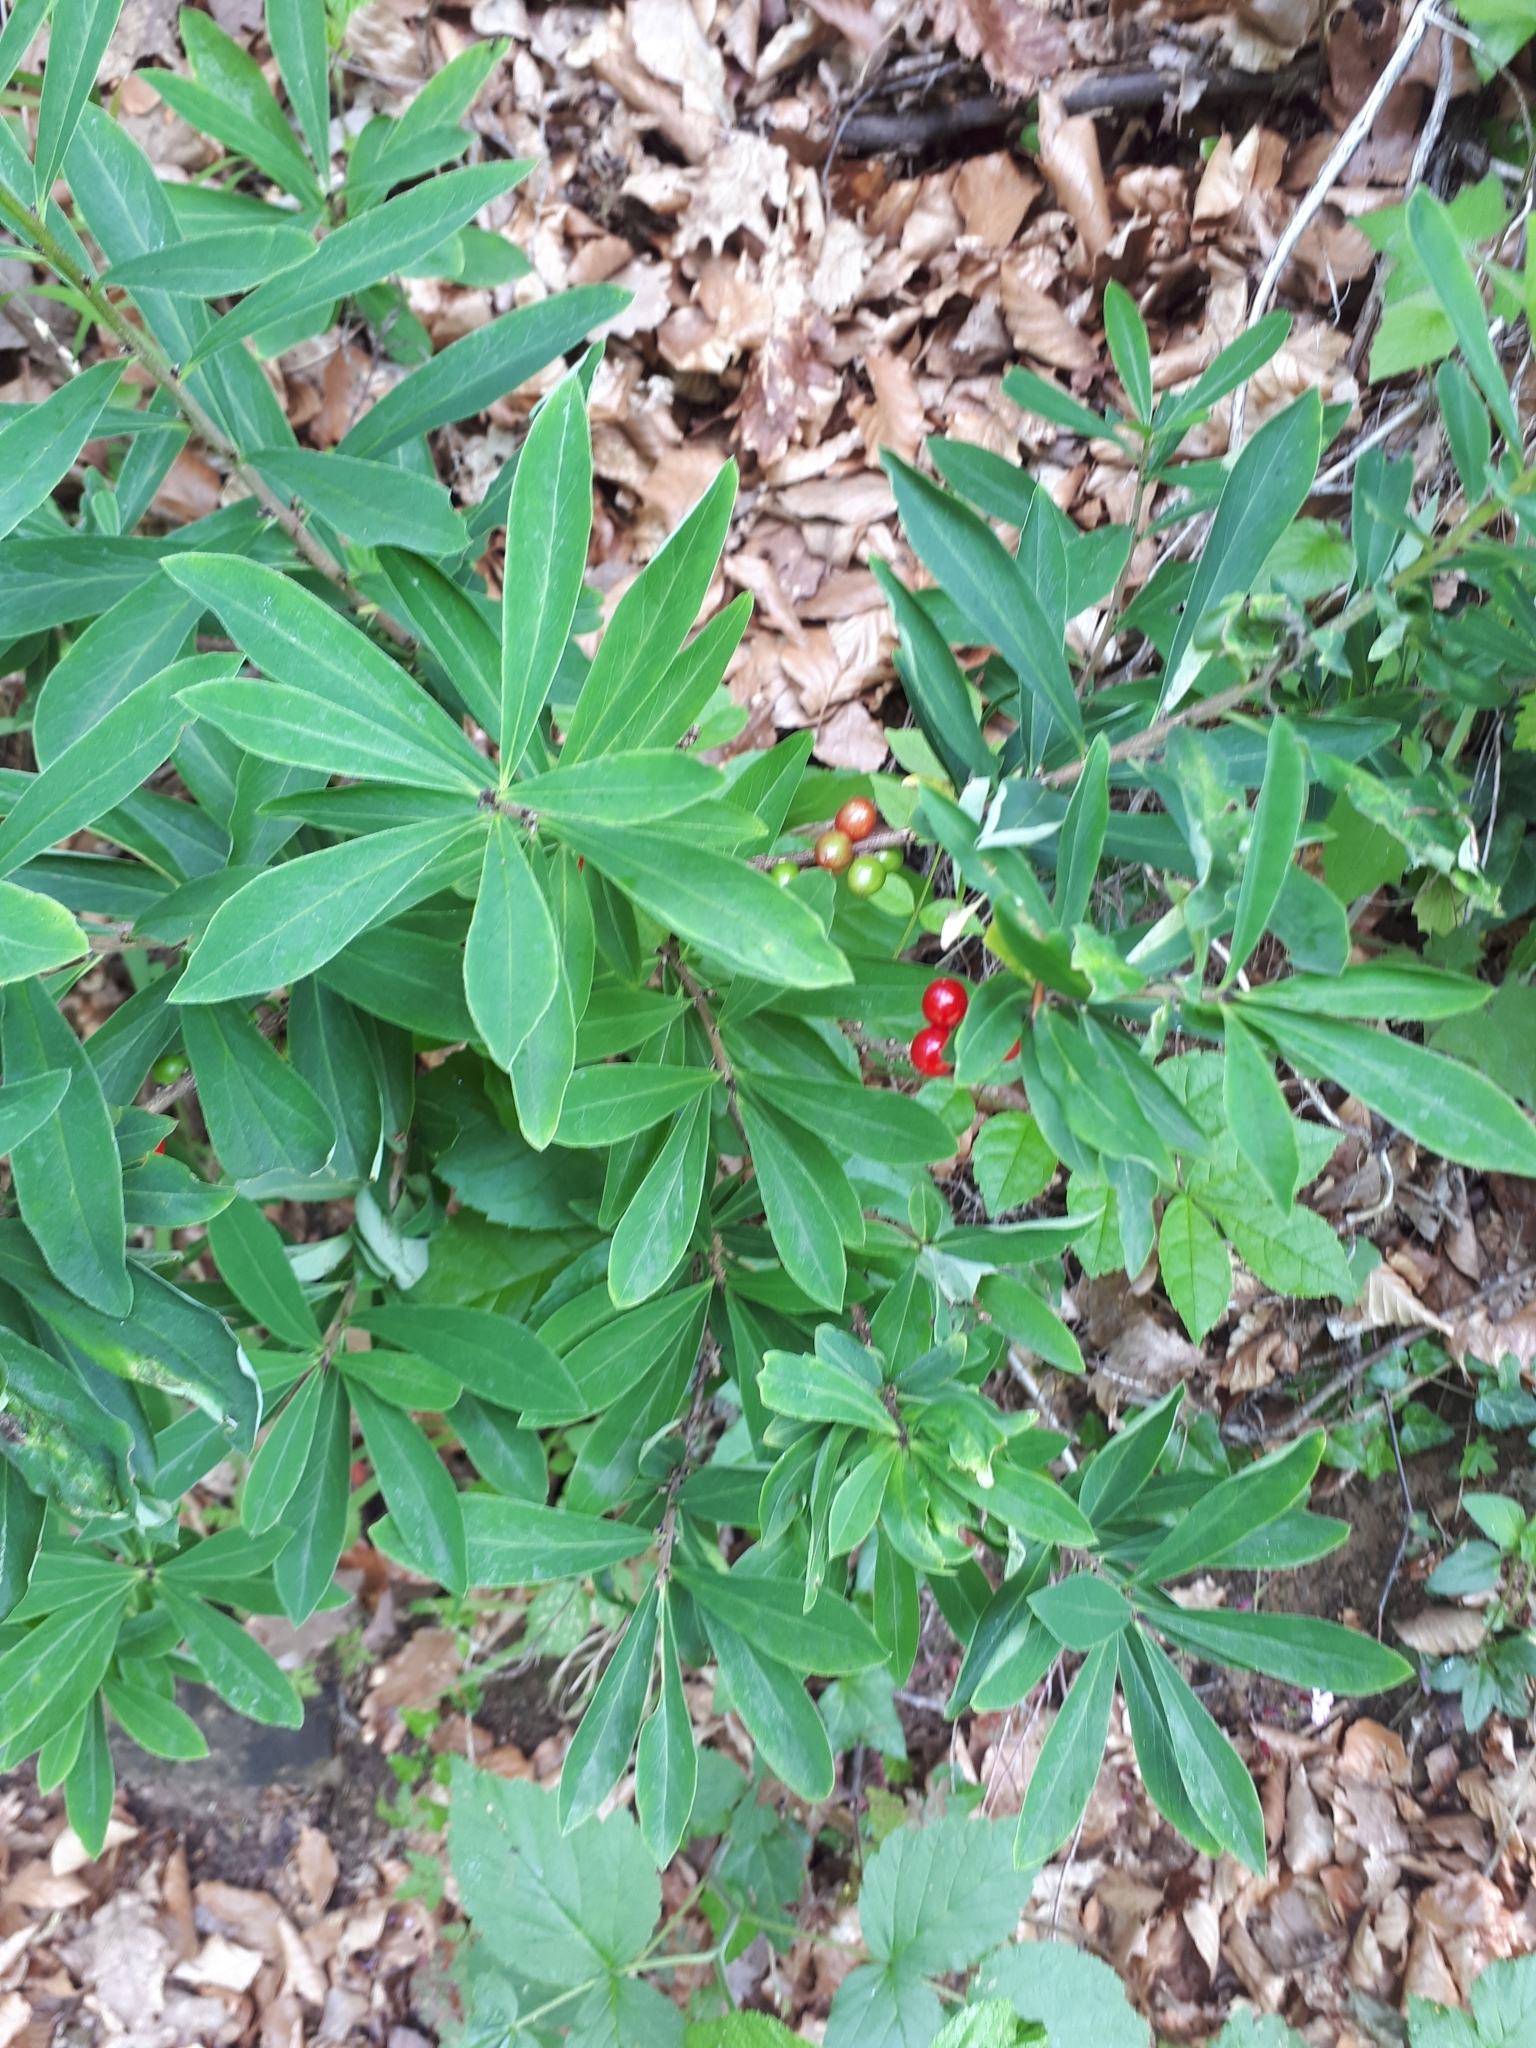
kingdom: Plantae
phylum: Tracheophyta
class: Magnoliopsida
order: Malvales
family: Thymelaeaceae
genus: Daphne
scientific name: Daphne mezereum
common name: Mezereon
